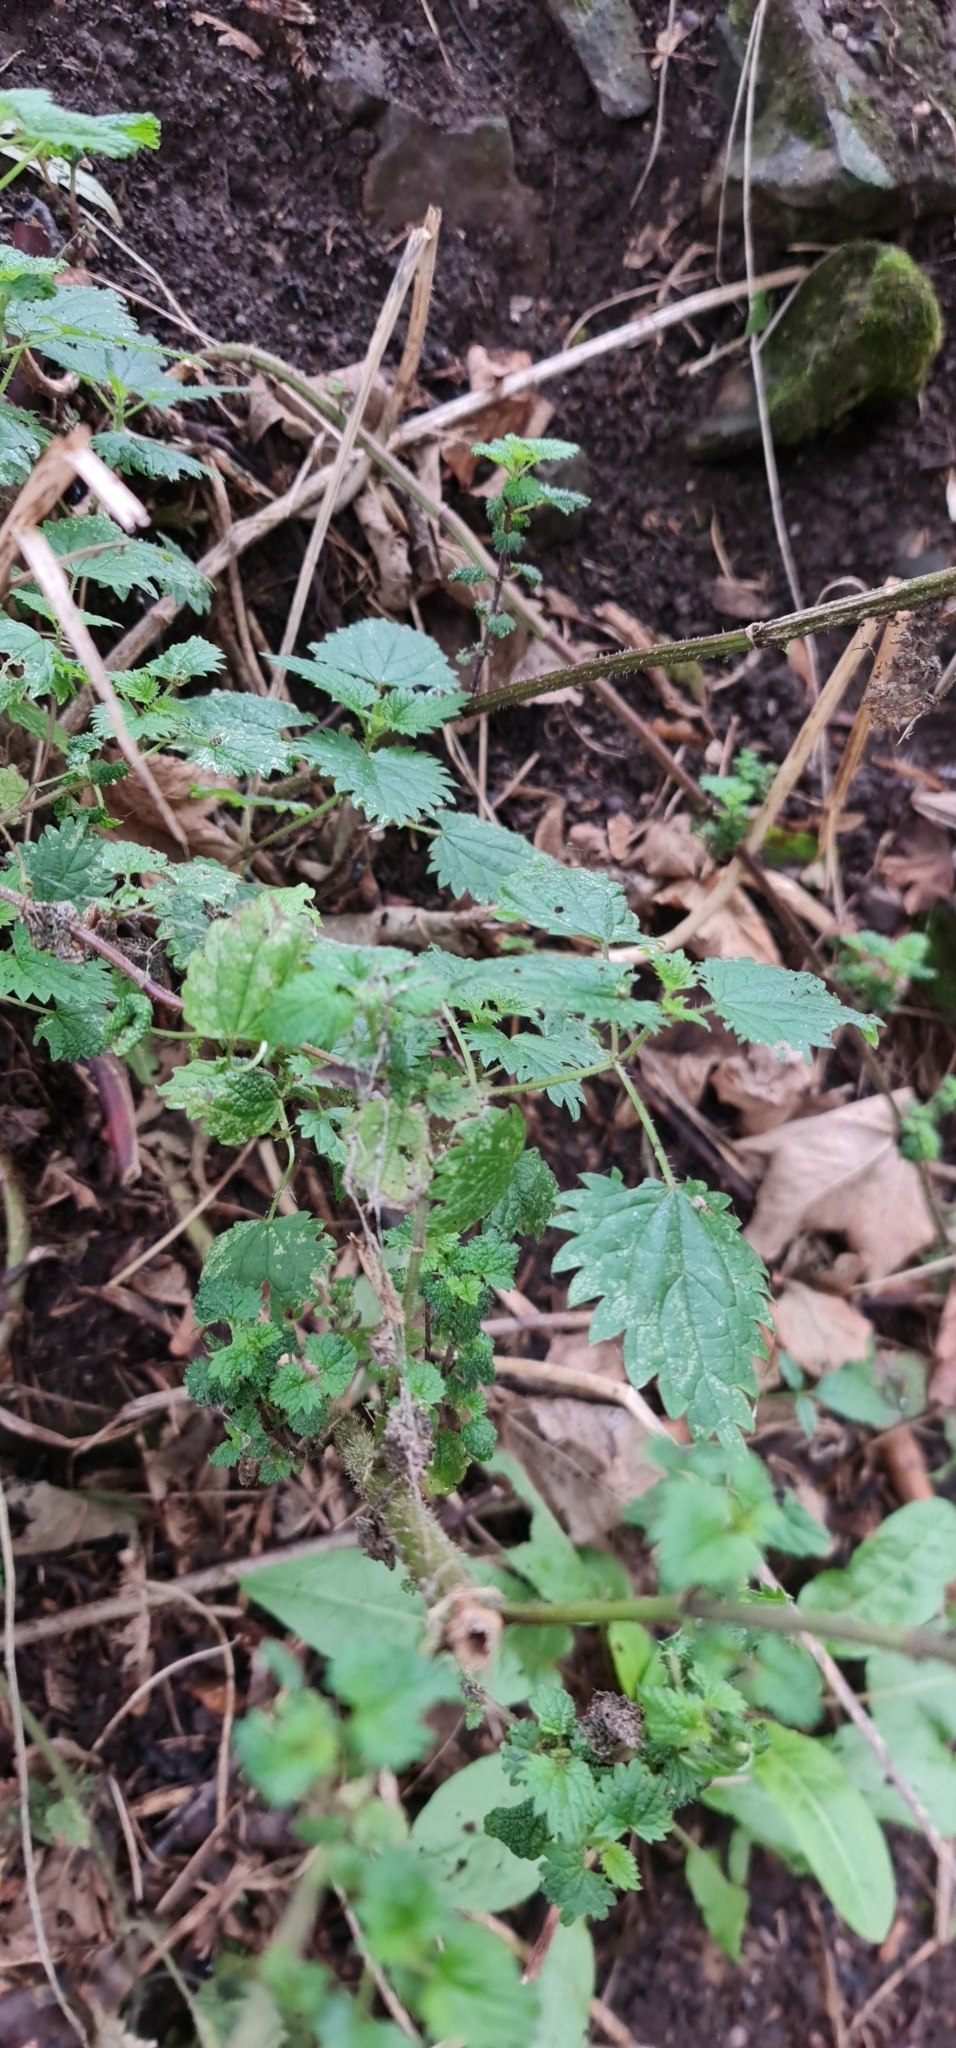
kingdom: Plantae
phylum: Tracheophyta
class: Magnoliopsida
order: Rosales
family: Urticaceae
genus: Urtica
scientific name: Urtica dioica
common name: Common nettle
